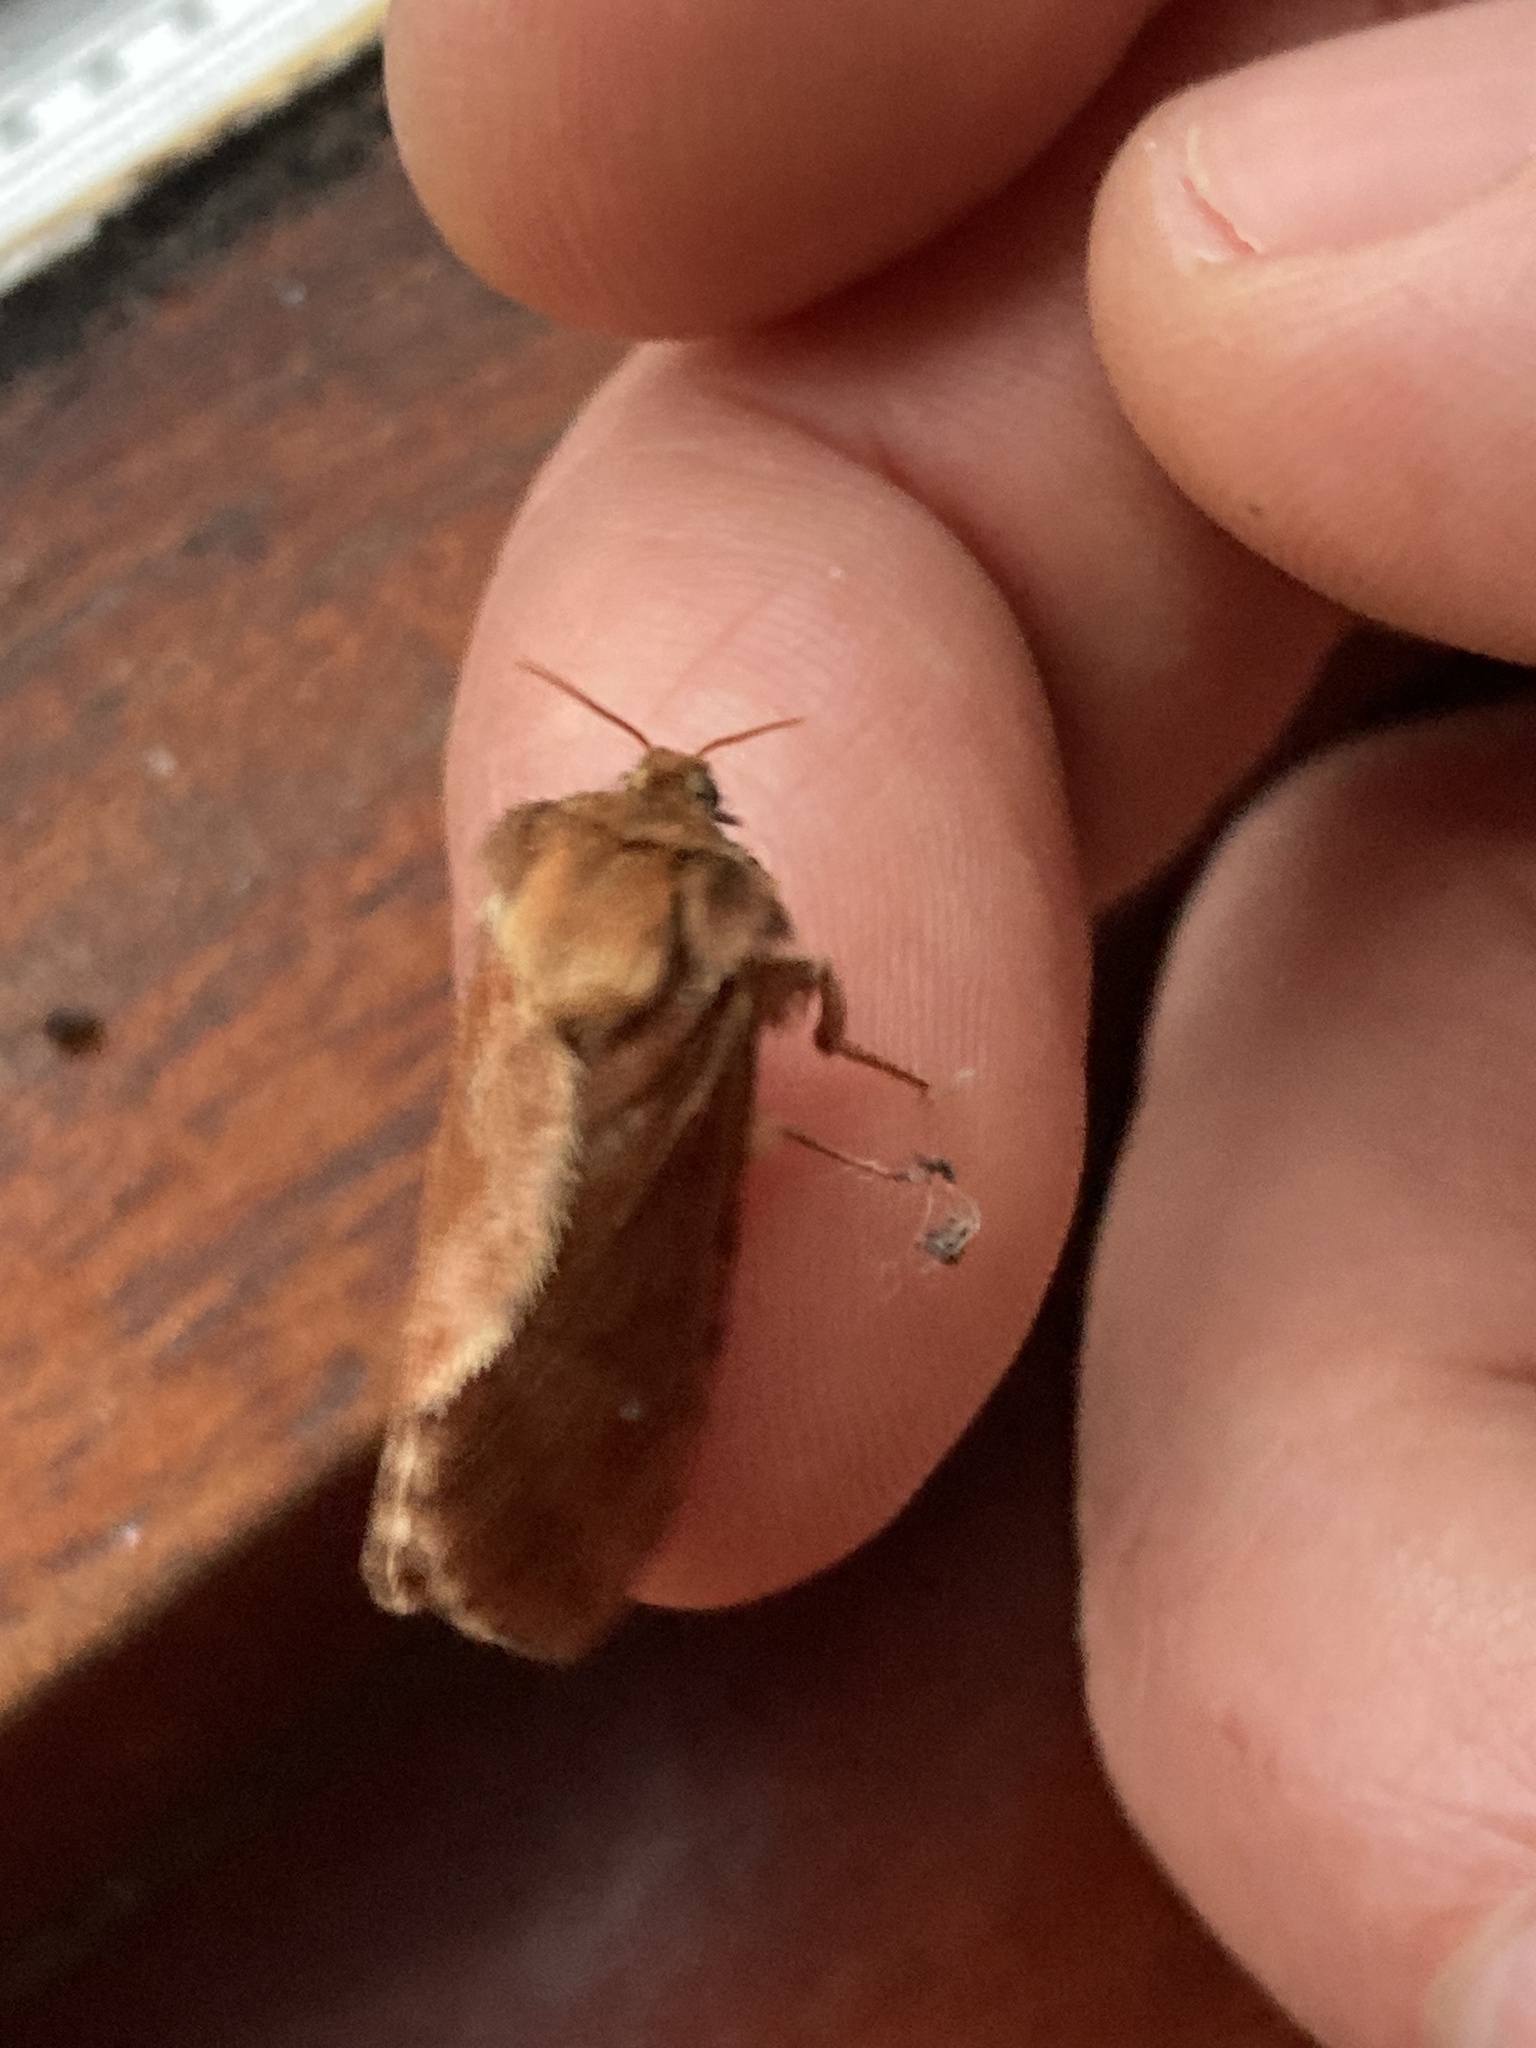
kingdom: Animalia
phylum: Arthropoda
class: Insecta
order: Lepidoptera
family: Hepialidae
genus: Korscheltellus
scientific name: Korscheltellus fusconebulosus
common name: Map-winged swift
